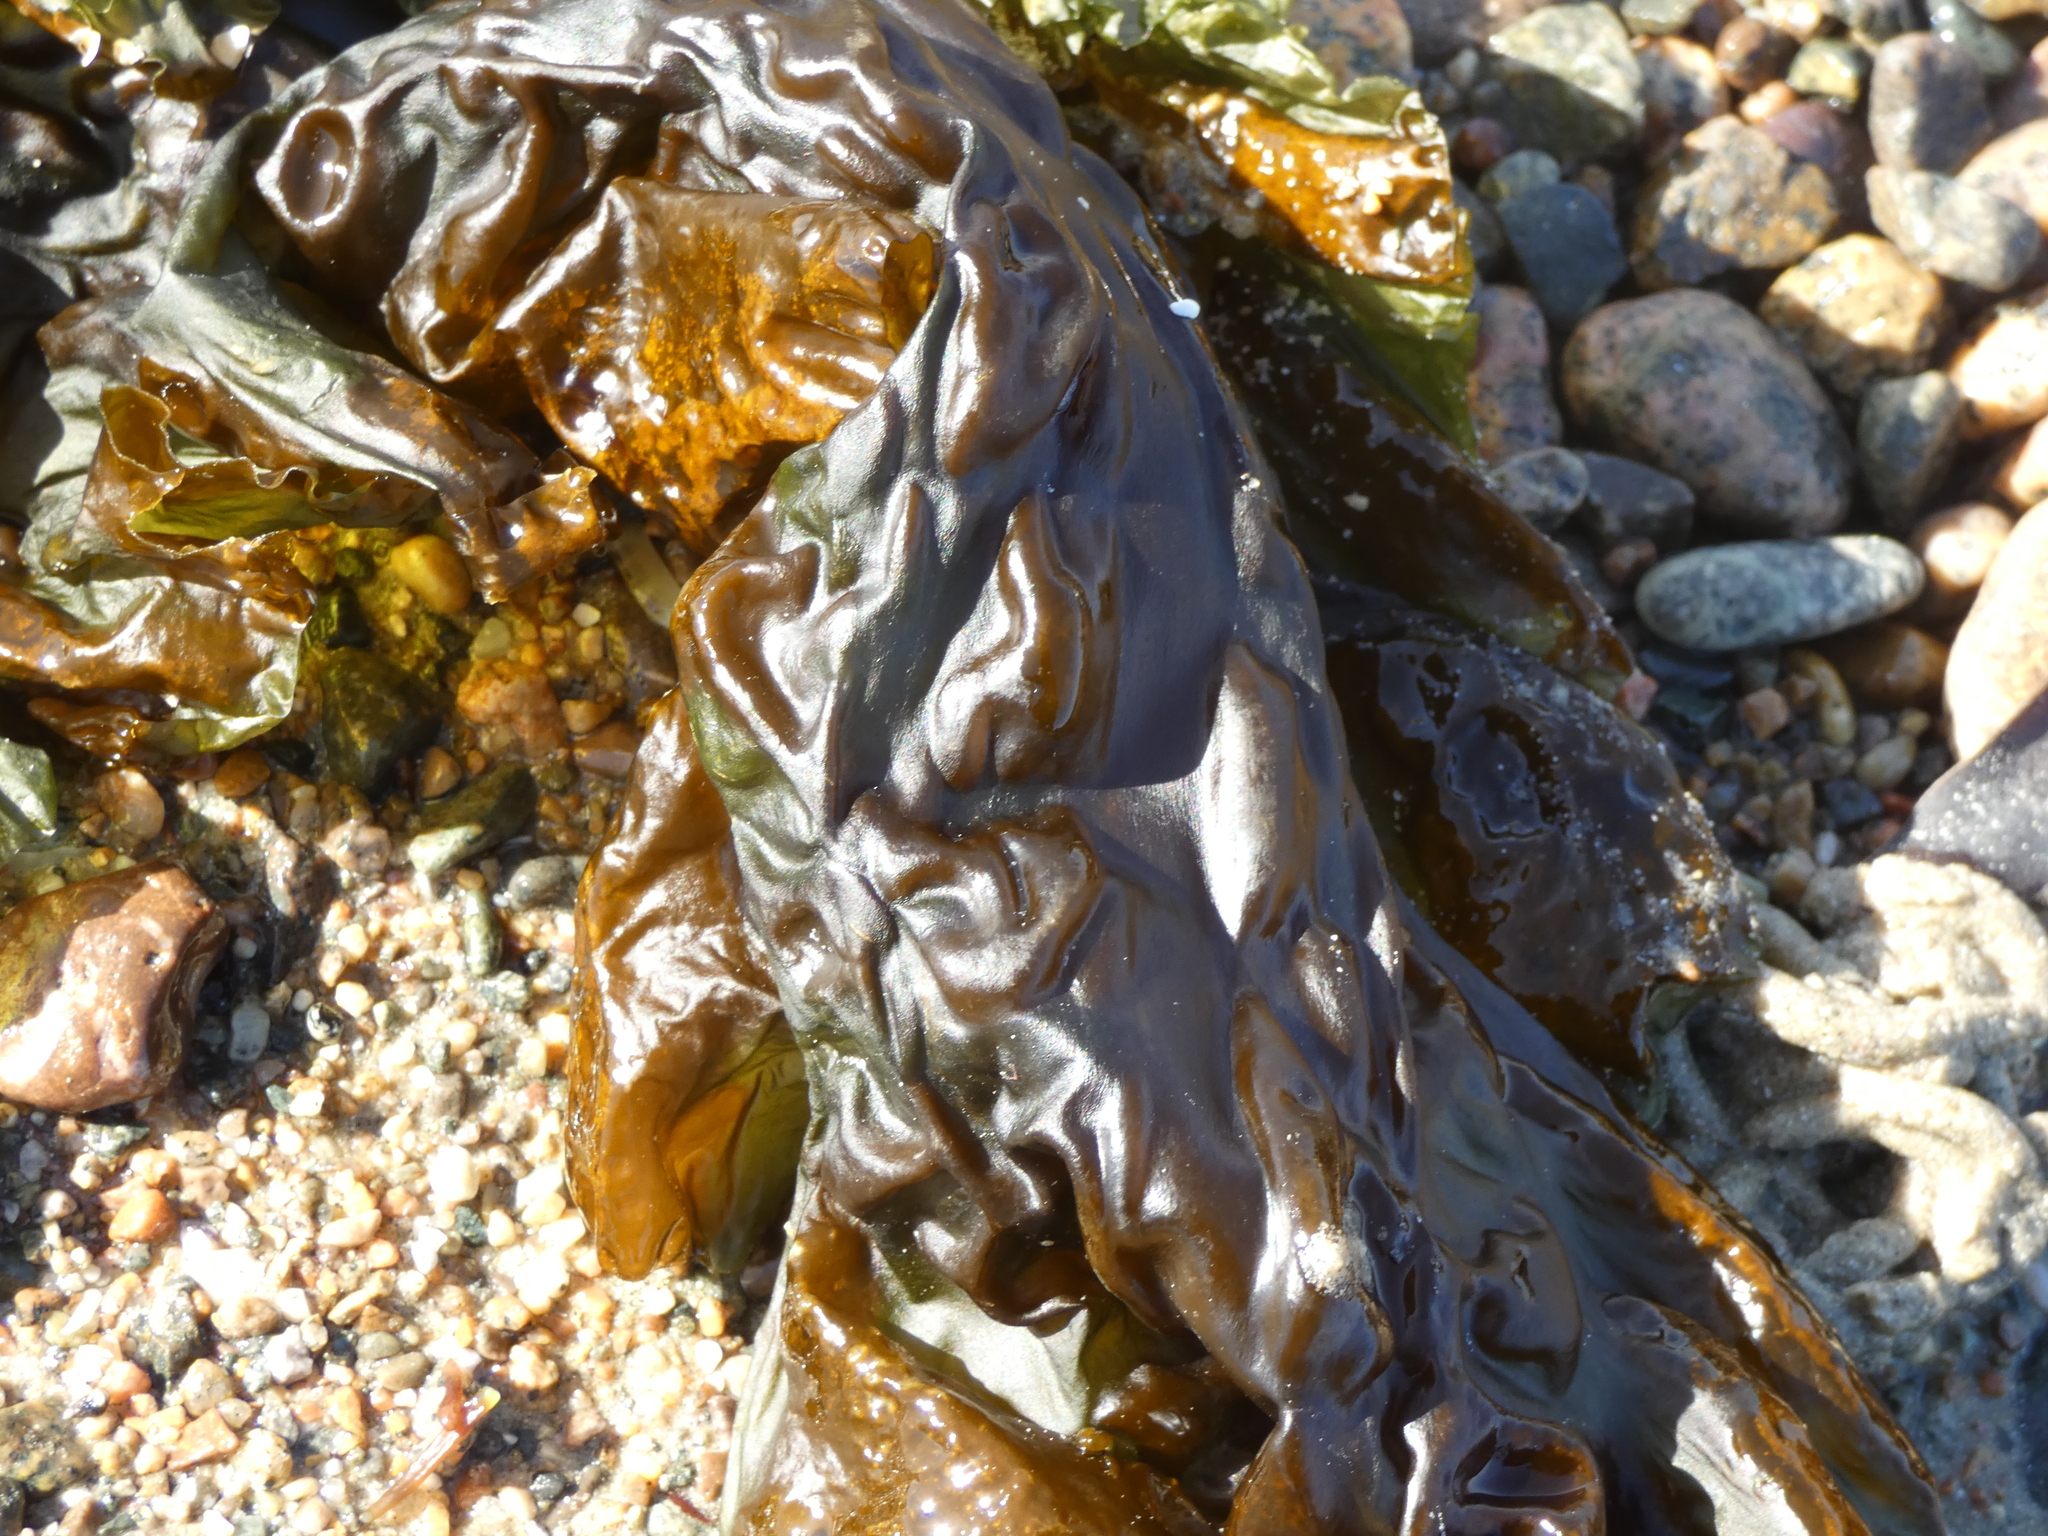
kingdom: Chromista
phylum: Ochrophyta
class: Phaeophyceae
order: Laminariales
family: Laminariaceae
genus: Saccharina
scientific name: Saccharina latissima
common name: Poor man's weather glass
